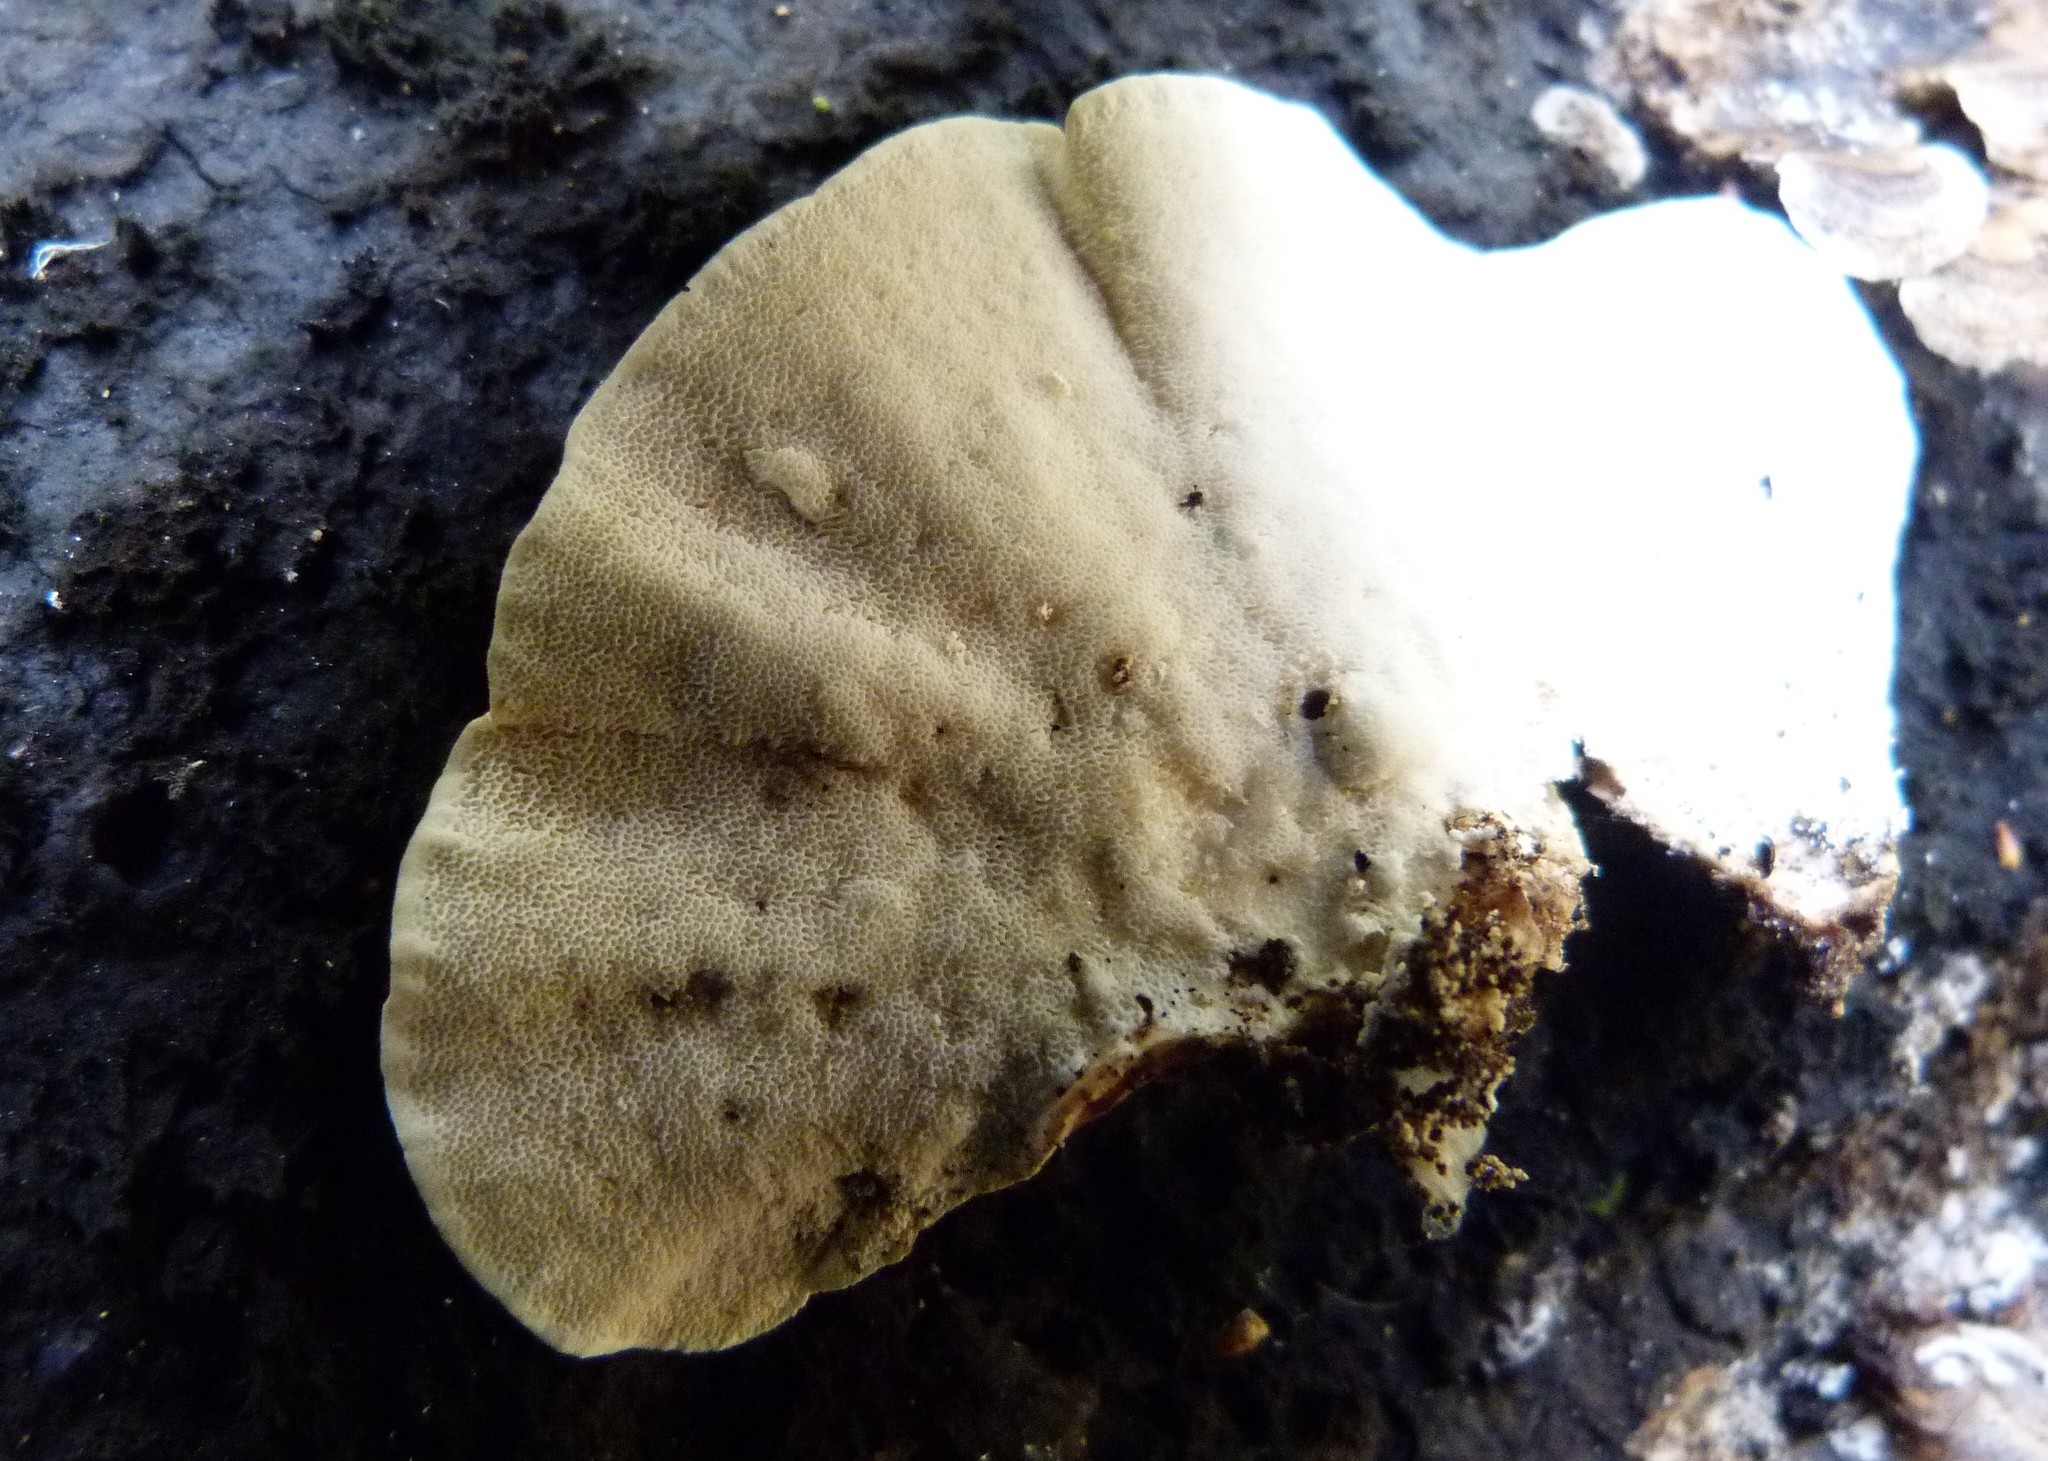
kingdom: Fungi
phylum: Basidiomycota
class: Agaricomycetes
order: Polyporales
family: Polyporaceae
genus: Trametes
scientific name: Trametes versicolor
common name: Turkeytail
